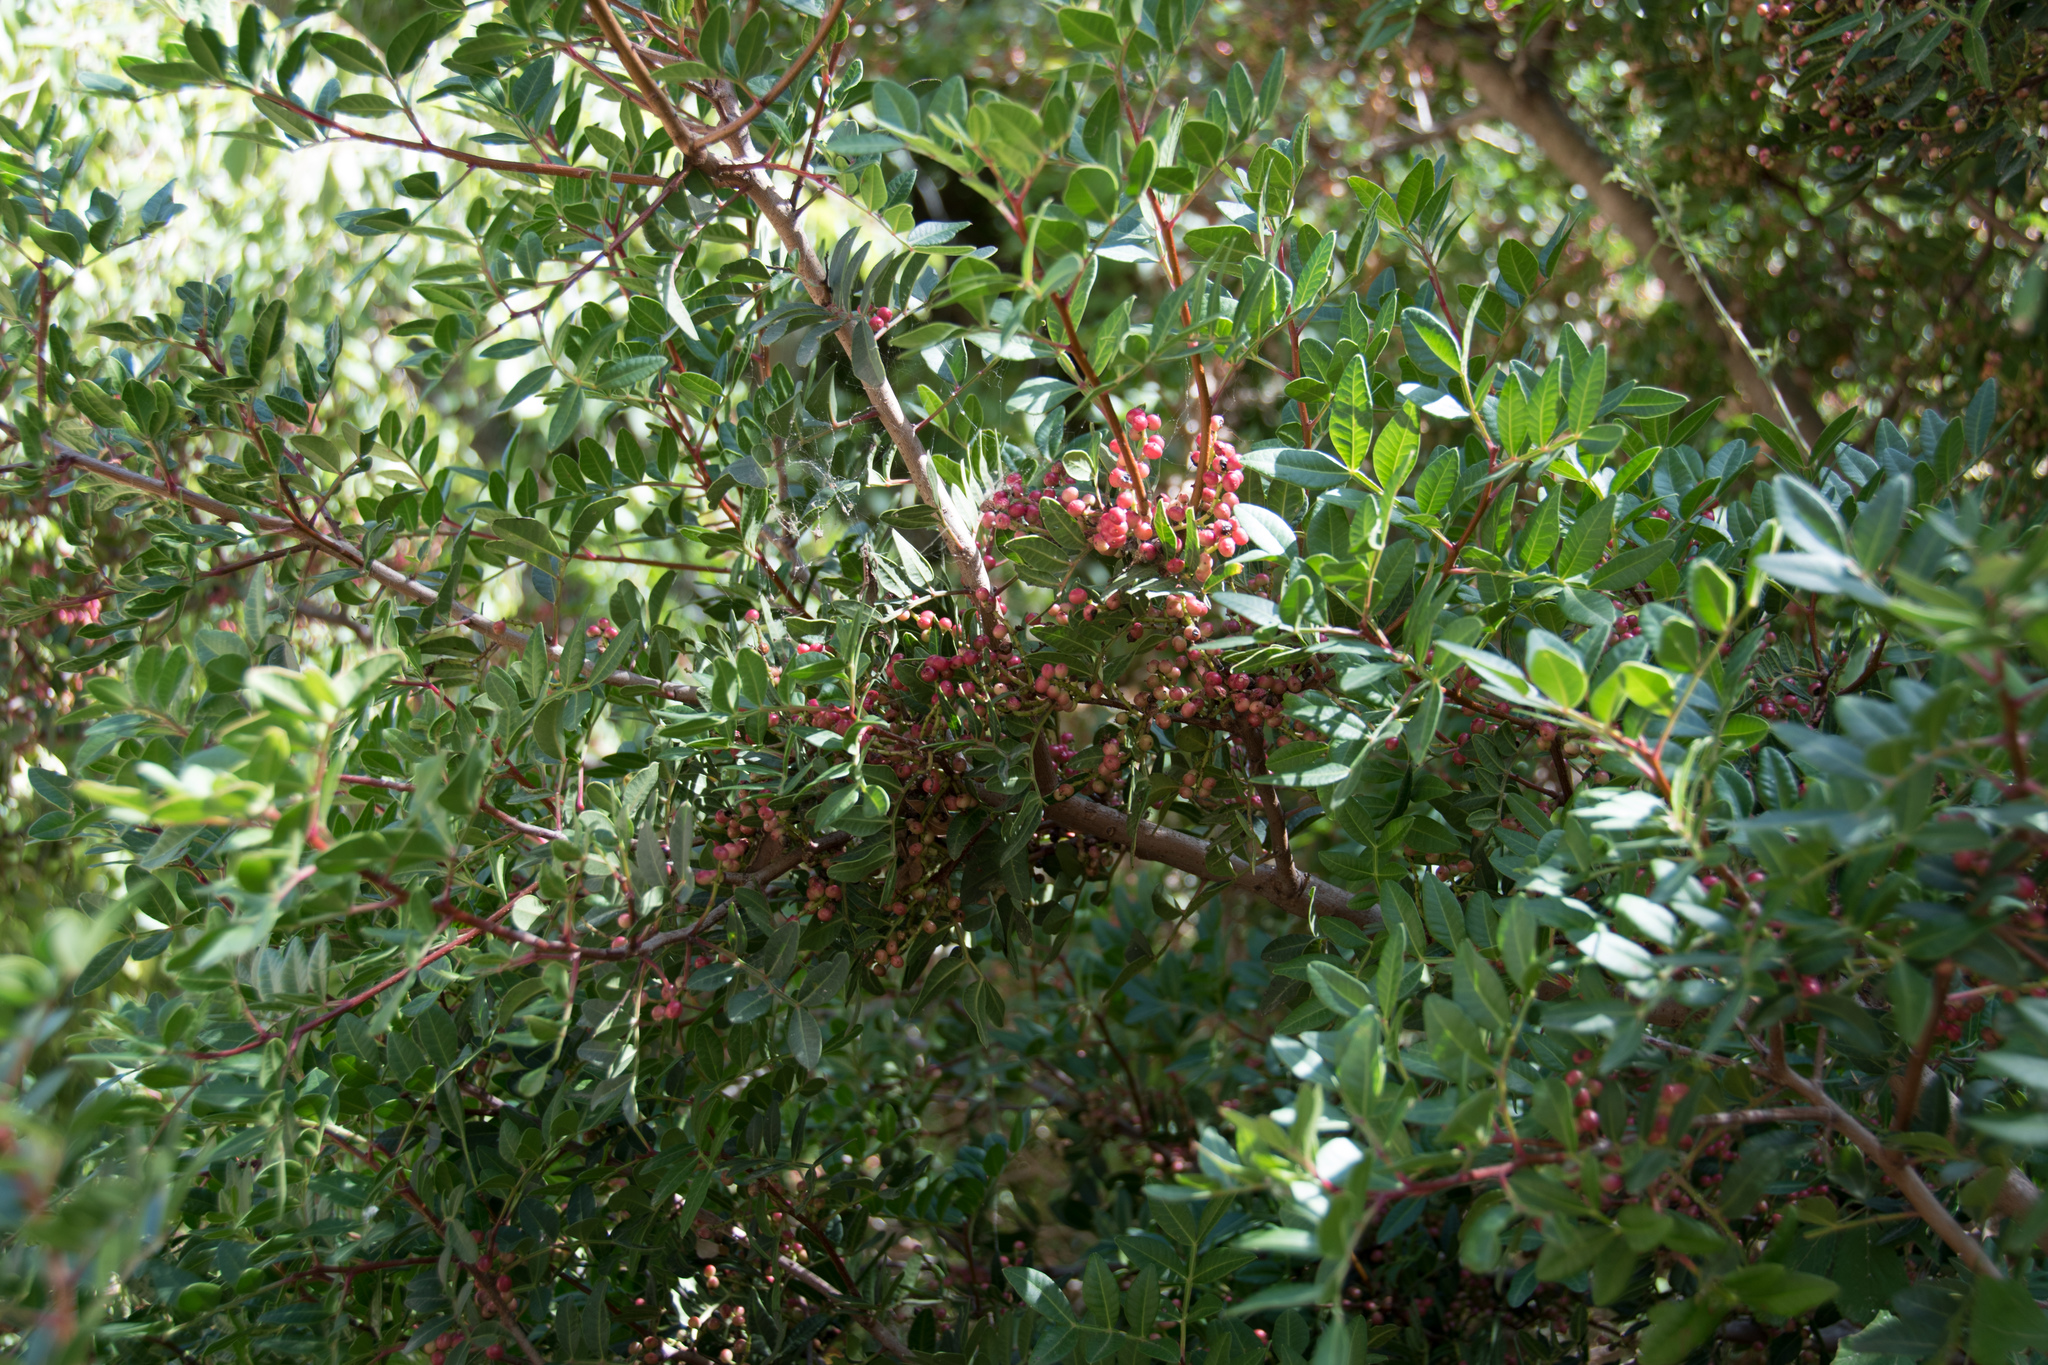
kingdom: Plantae
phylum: Tracheophyta
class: Magnoliopsida
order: Sapindales
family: Anacardiaceae
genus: Pistacia
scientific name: Pistacia lentiscus
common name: Lentisk
